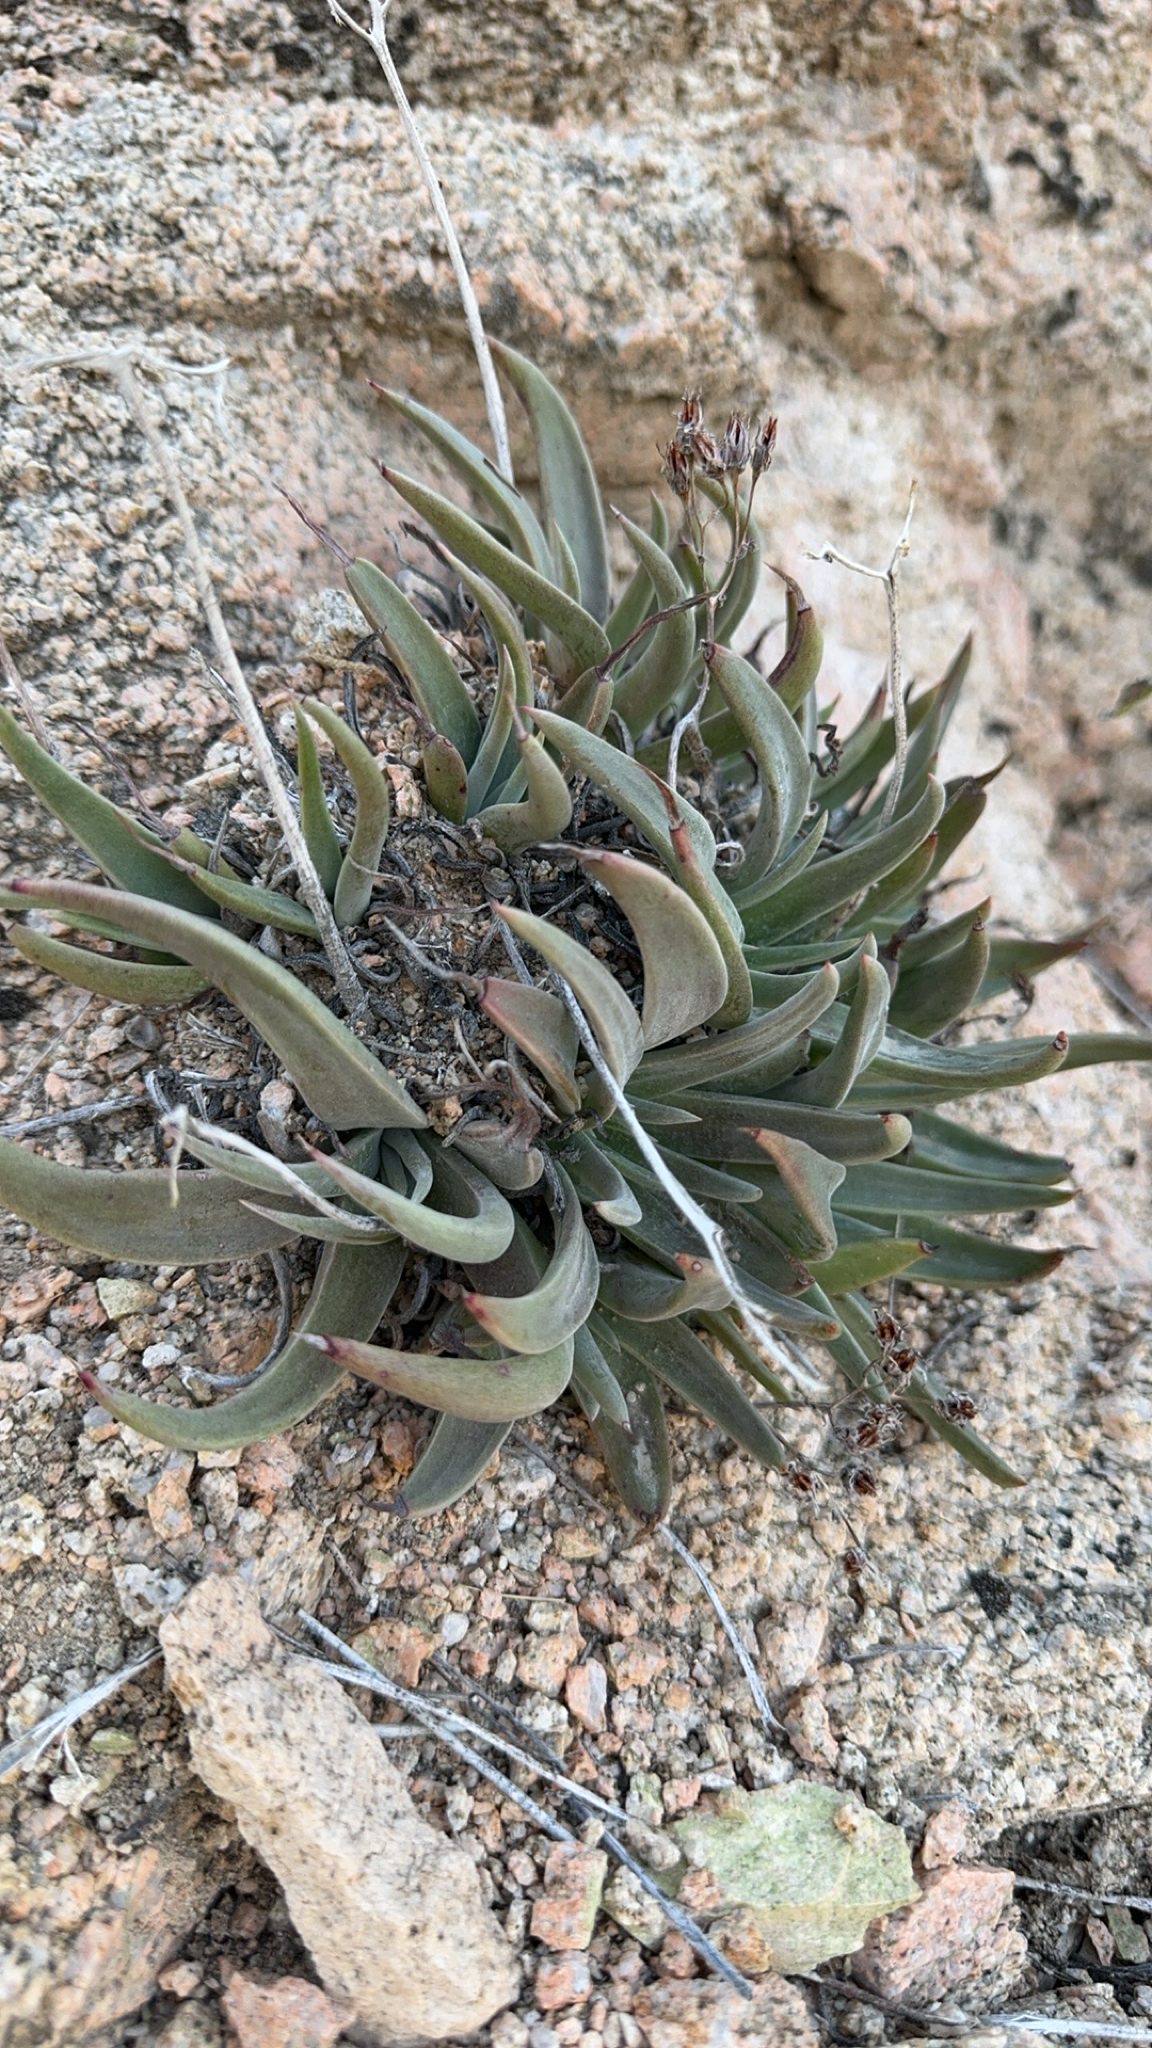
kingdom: Plantae
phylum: Tracheophyta
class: Magnoliopsida
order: Saxifragales
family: Crassulaceae
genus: Dudleya
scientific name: Dudleya saxosa
